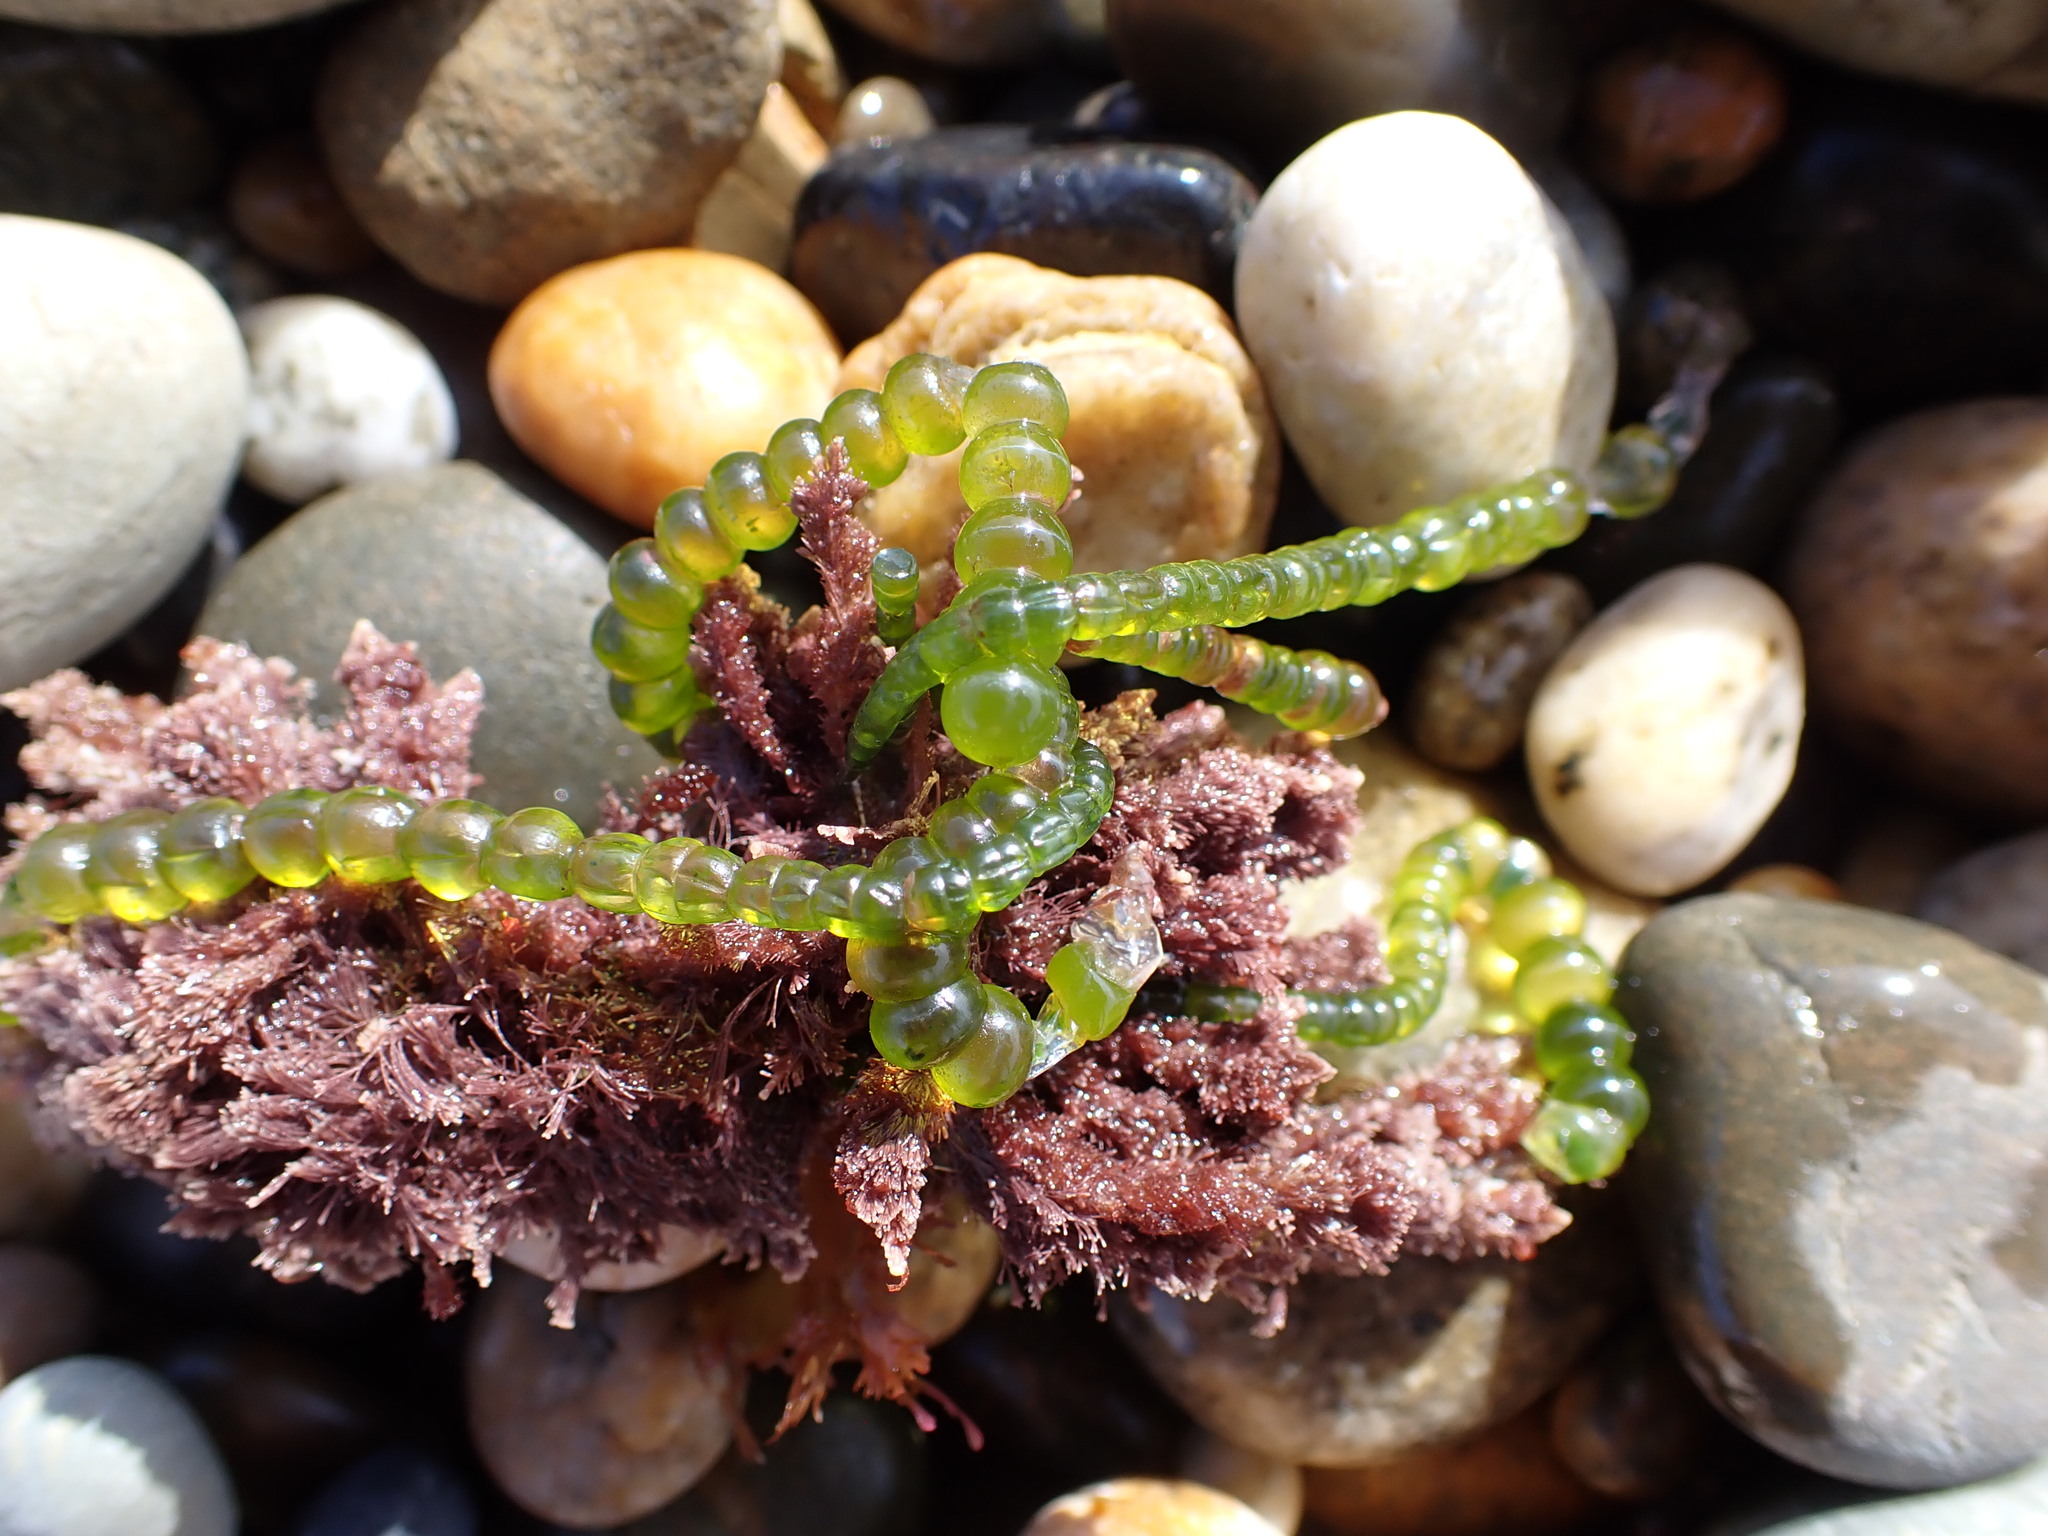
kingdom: Plantae
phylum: Chlorophyta
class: Ulvophyceae
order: Cladophorales
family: Cladophoraceae
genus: Chaetomorpha
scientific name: Chaetomorpha coliformis
